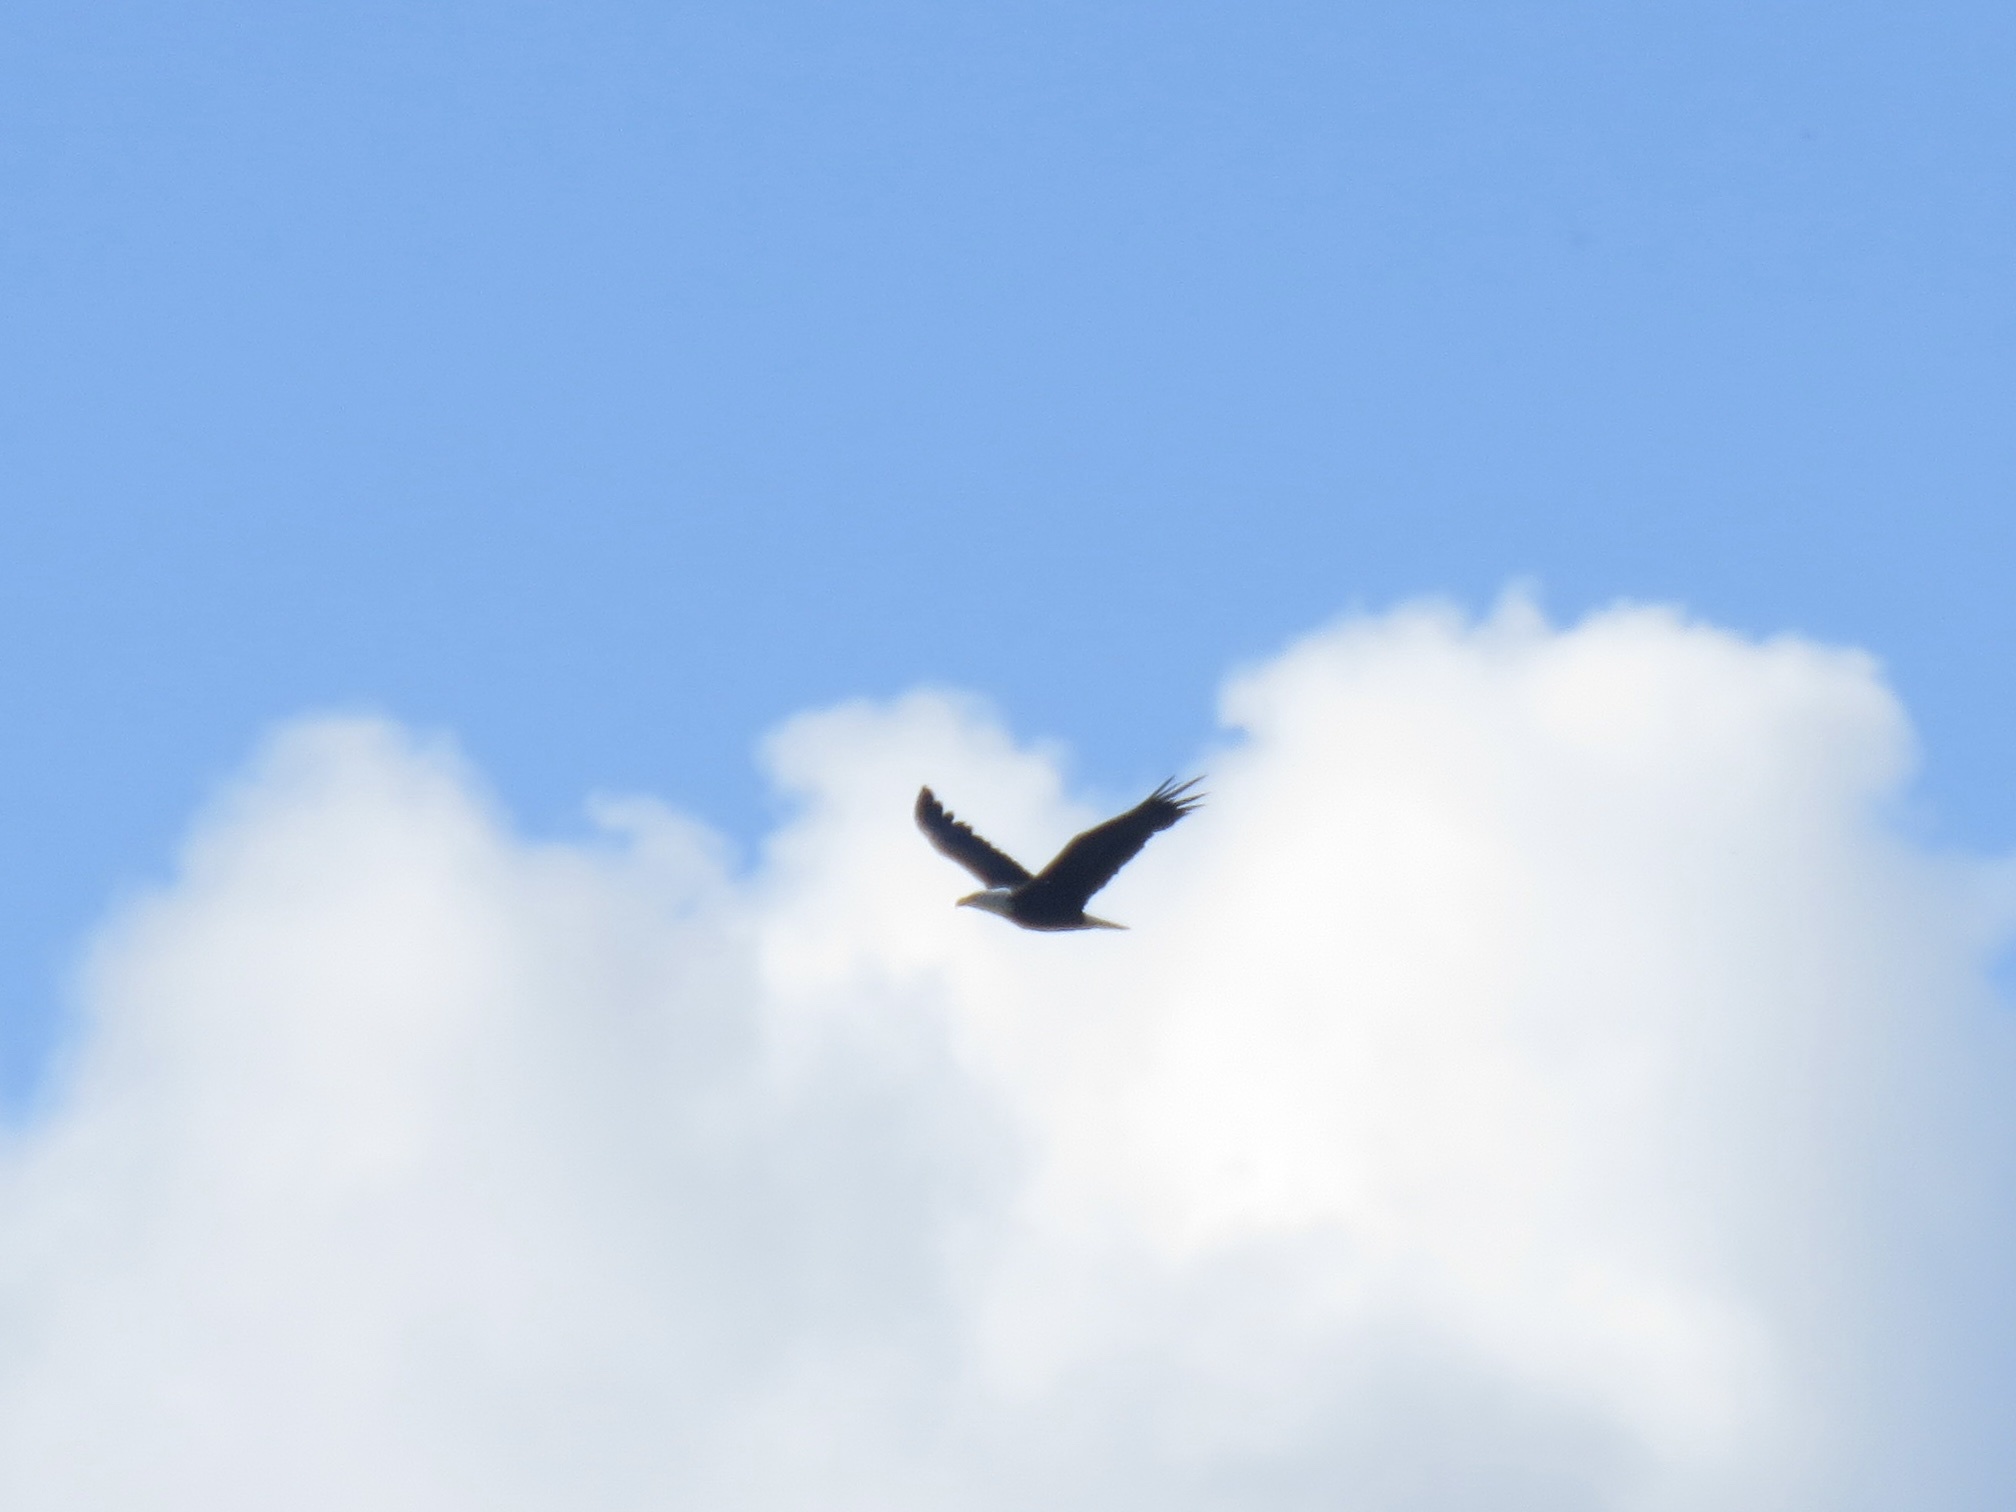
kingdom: Animalia
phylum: Chordata
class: Aves
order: Accipitriformes
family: Accipitridae
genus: Haliaeetus
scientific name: Haliaeetus leucocephalus
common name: Bald eagle
